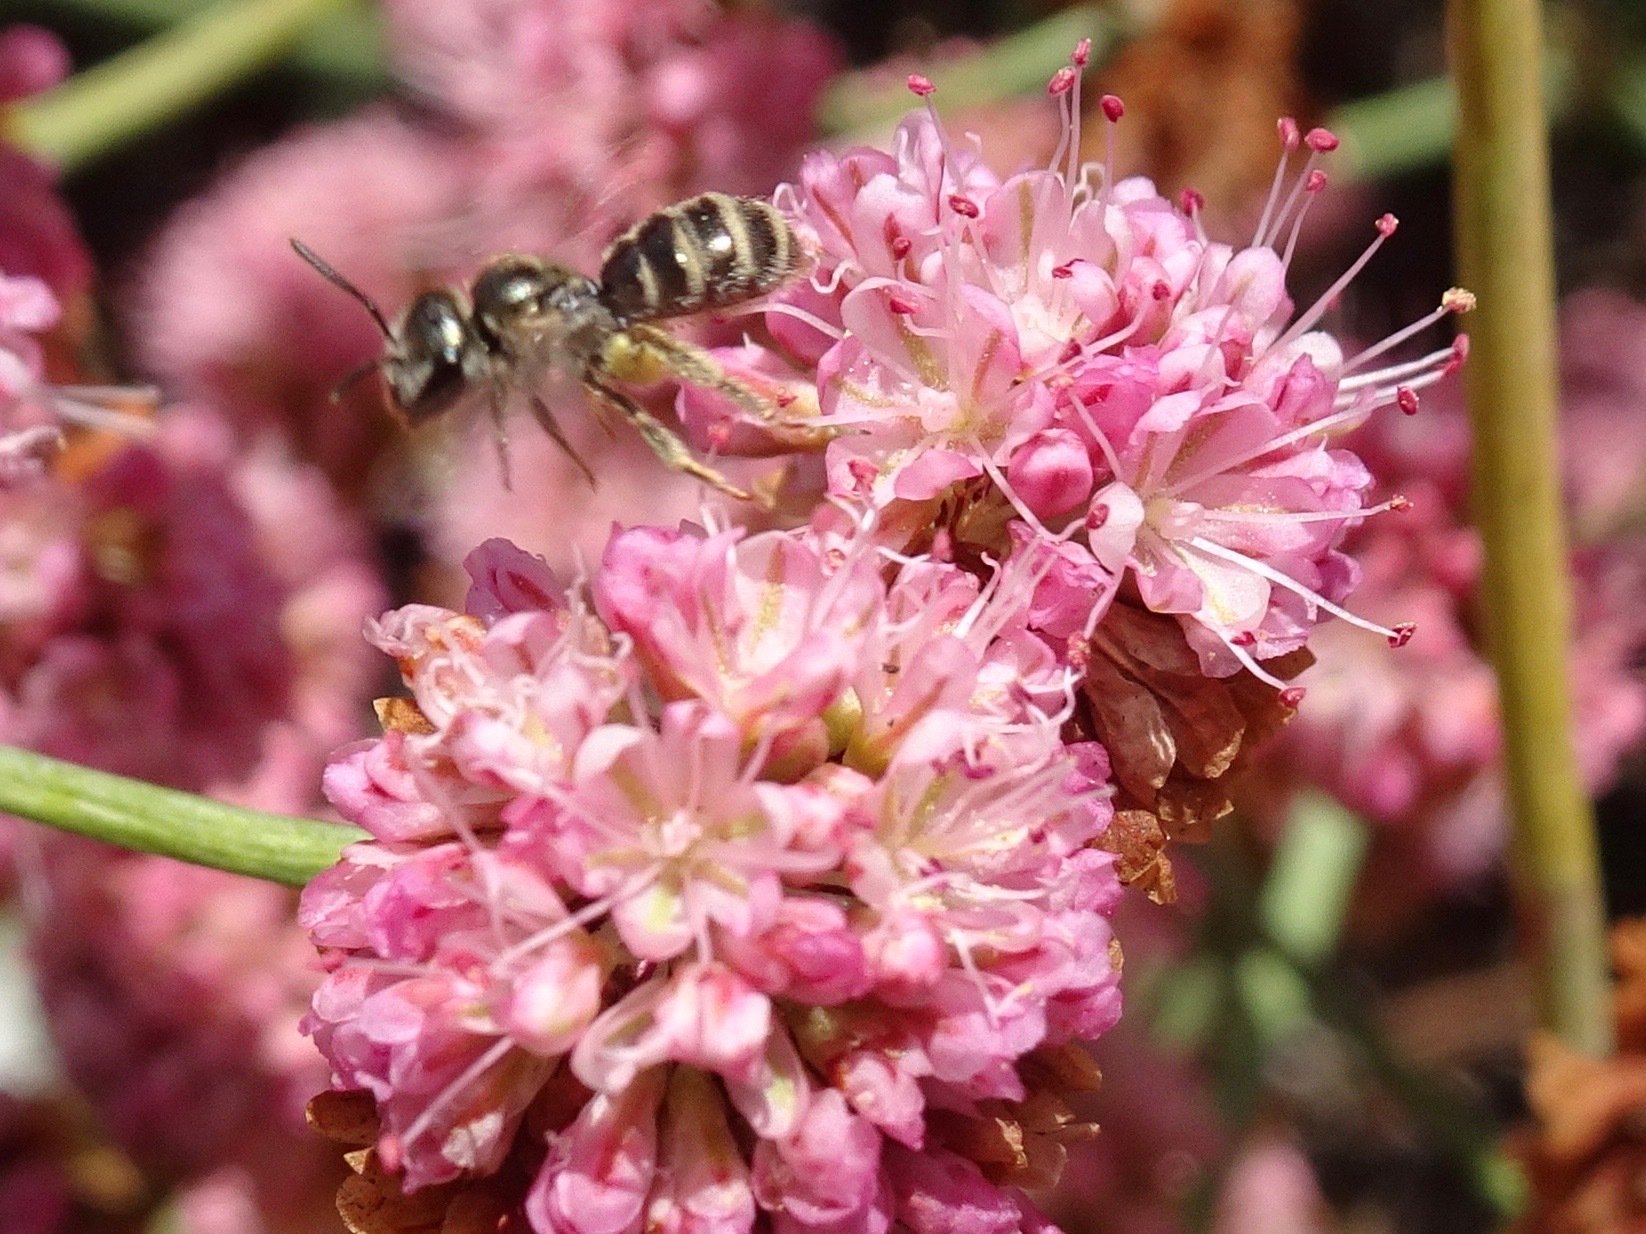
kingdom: Animalia
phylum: Arthropoda
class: Insecta
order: Hymenoptera
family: Halictidae
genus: Halictus
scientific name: Halictus tripartitus
